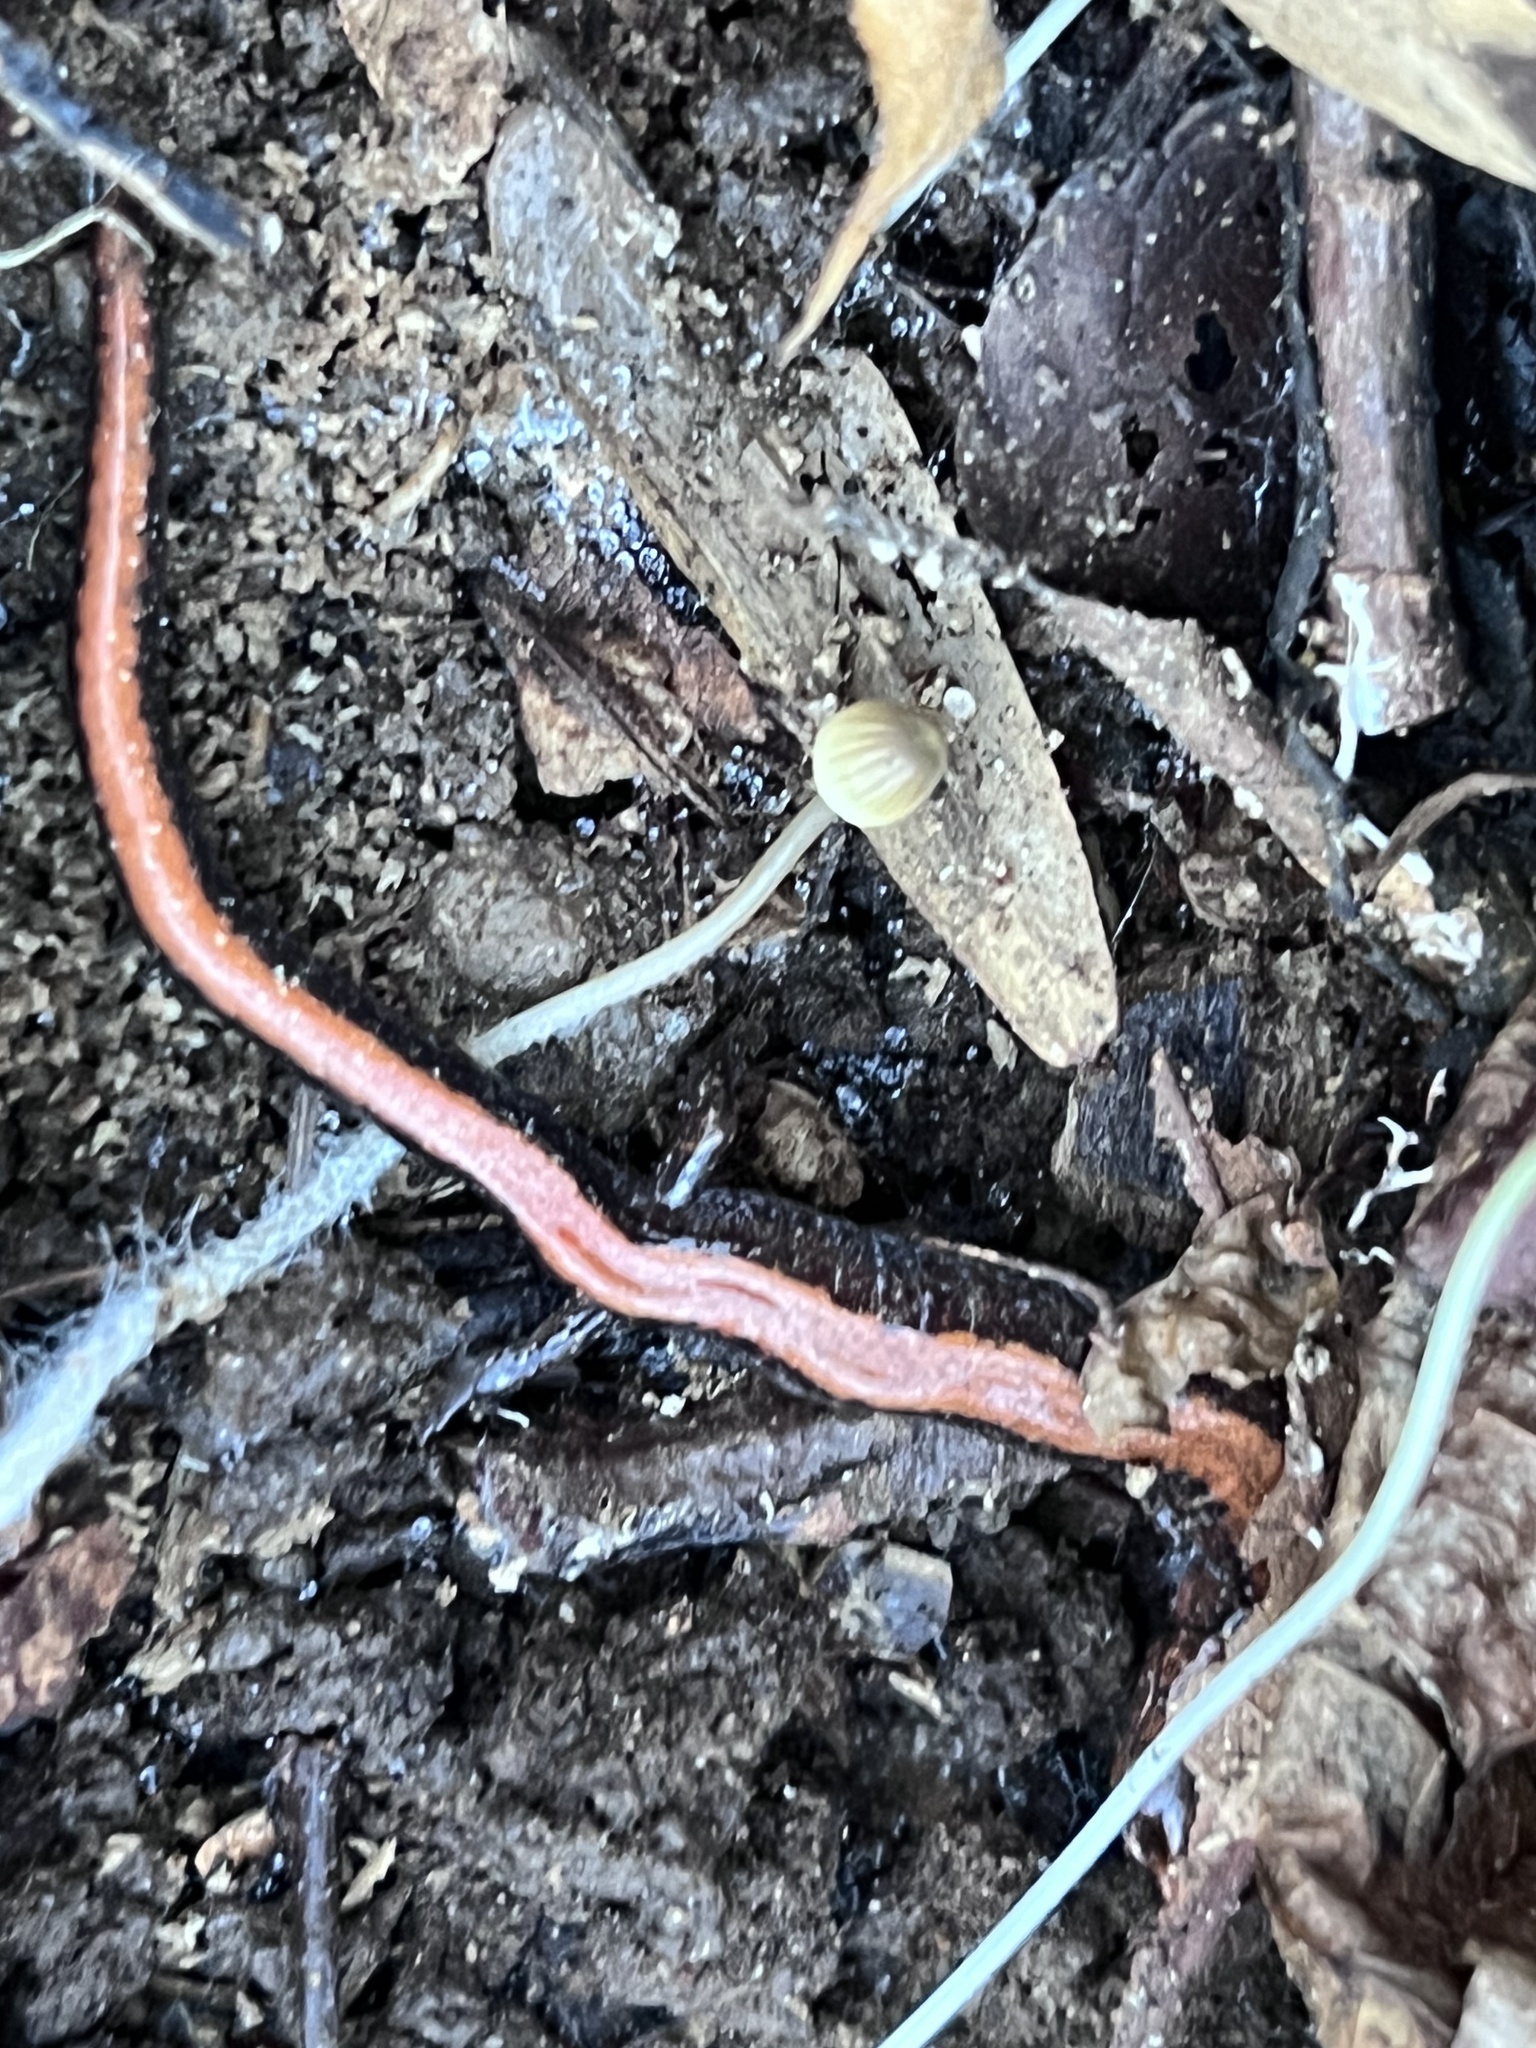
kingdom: Animalia
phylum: Chordata
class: Amphibia
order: Caudata
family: Plethodontidae
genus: Plethodon
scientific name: Plethodon cinereus
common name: Redback salamander
